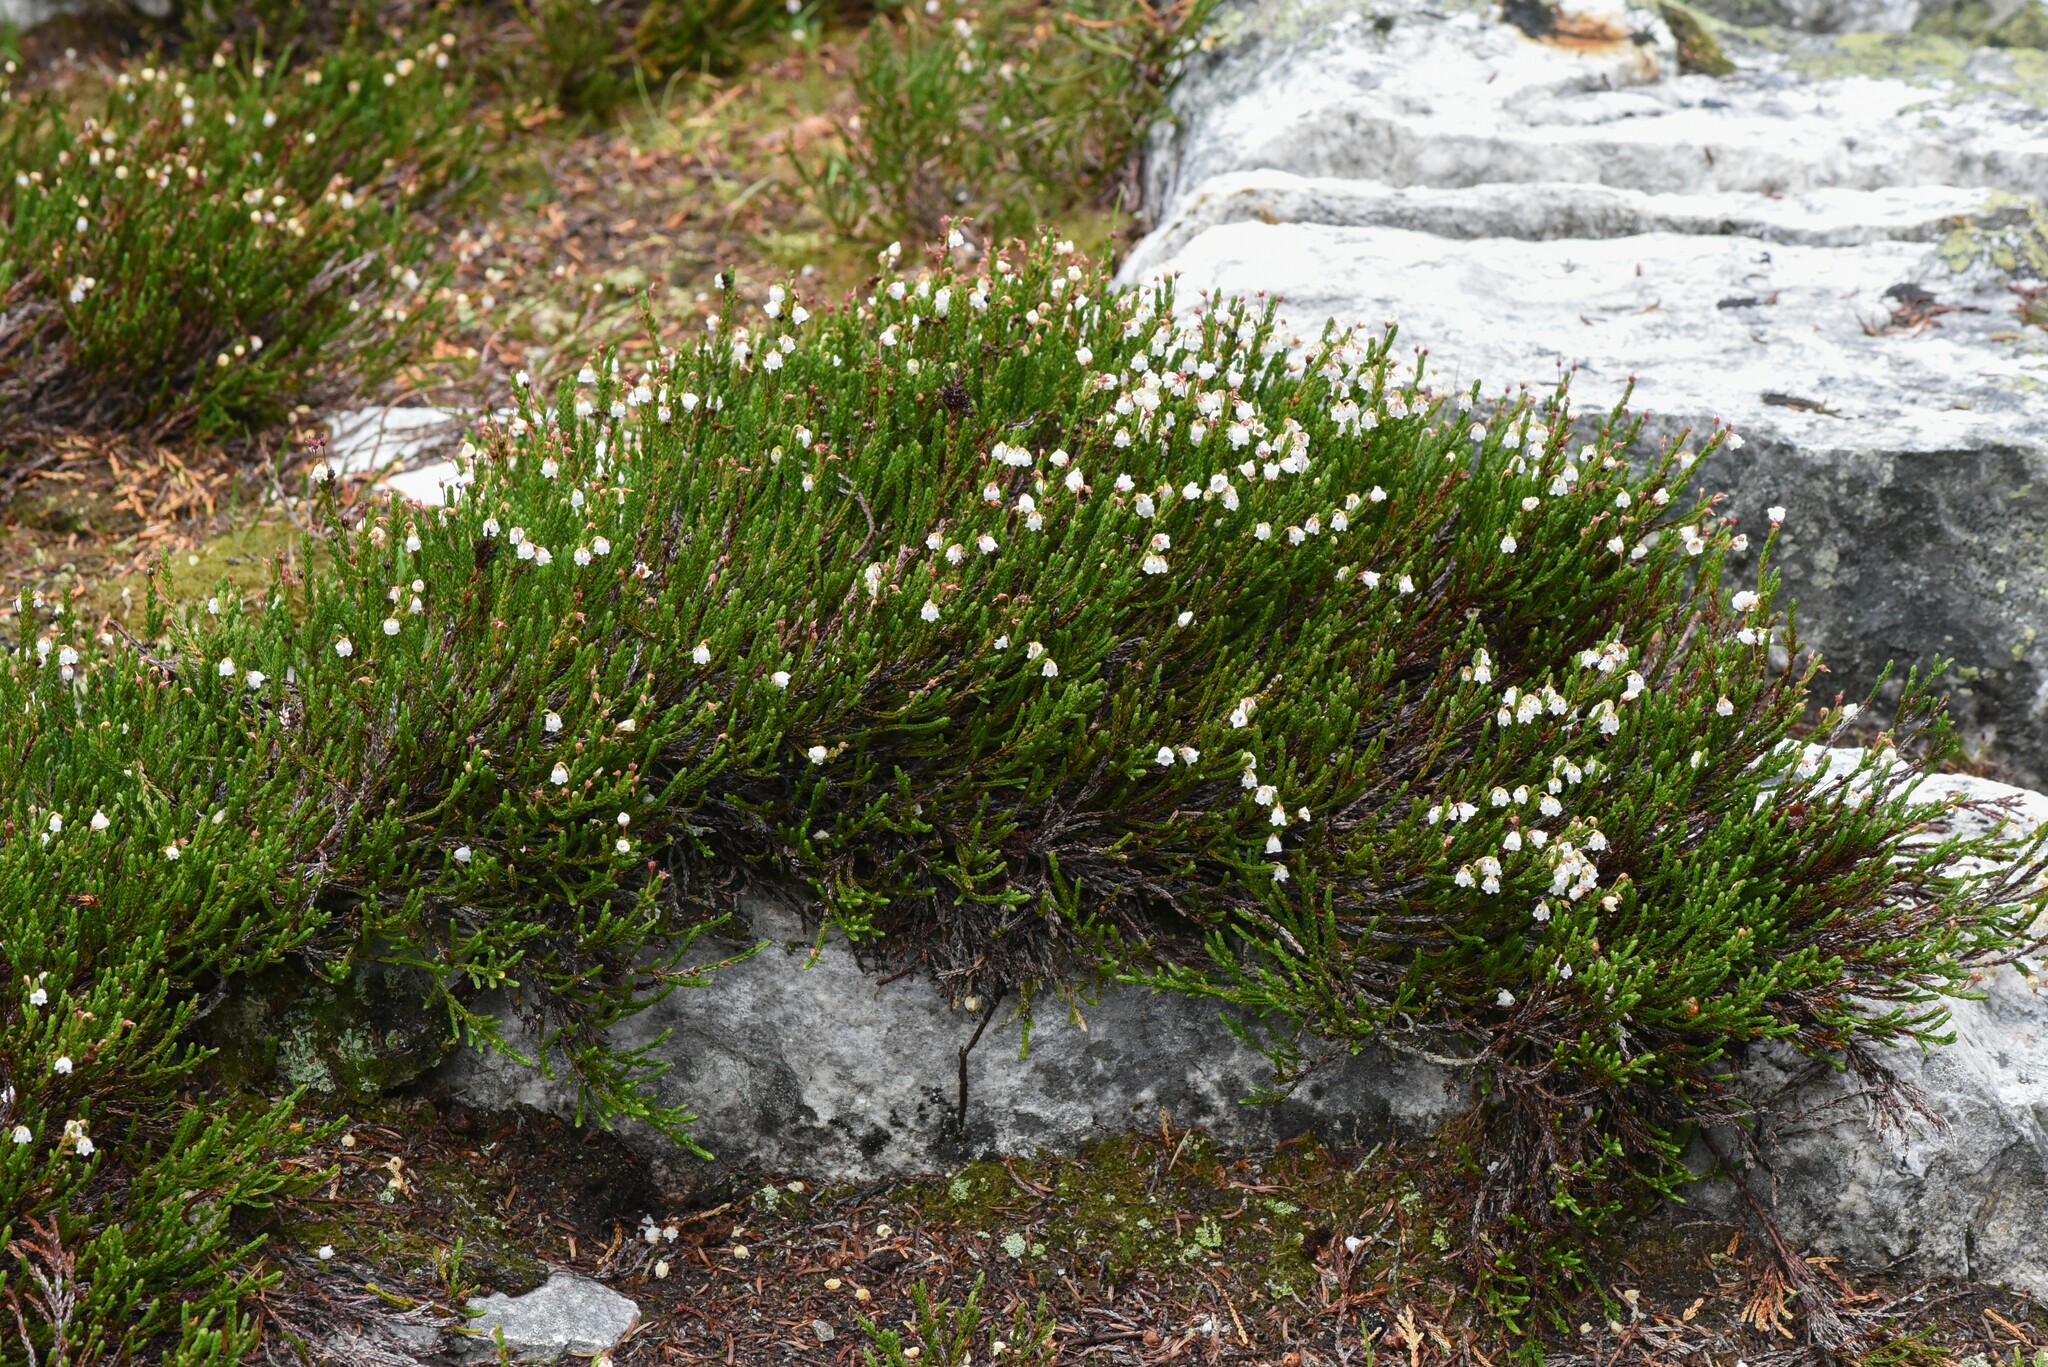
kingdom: Plantae
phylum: Tracheophyta
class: Magnoliopsida
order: Ericales
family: Ericaceae
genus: Cassiope
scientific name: Cassiope mertensiana
